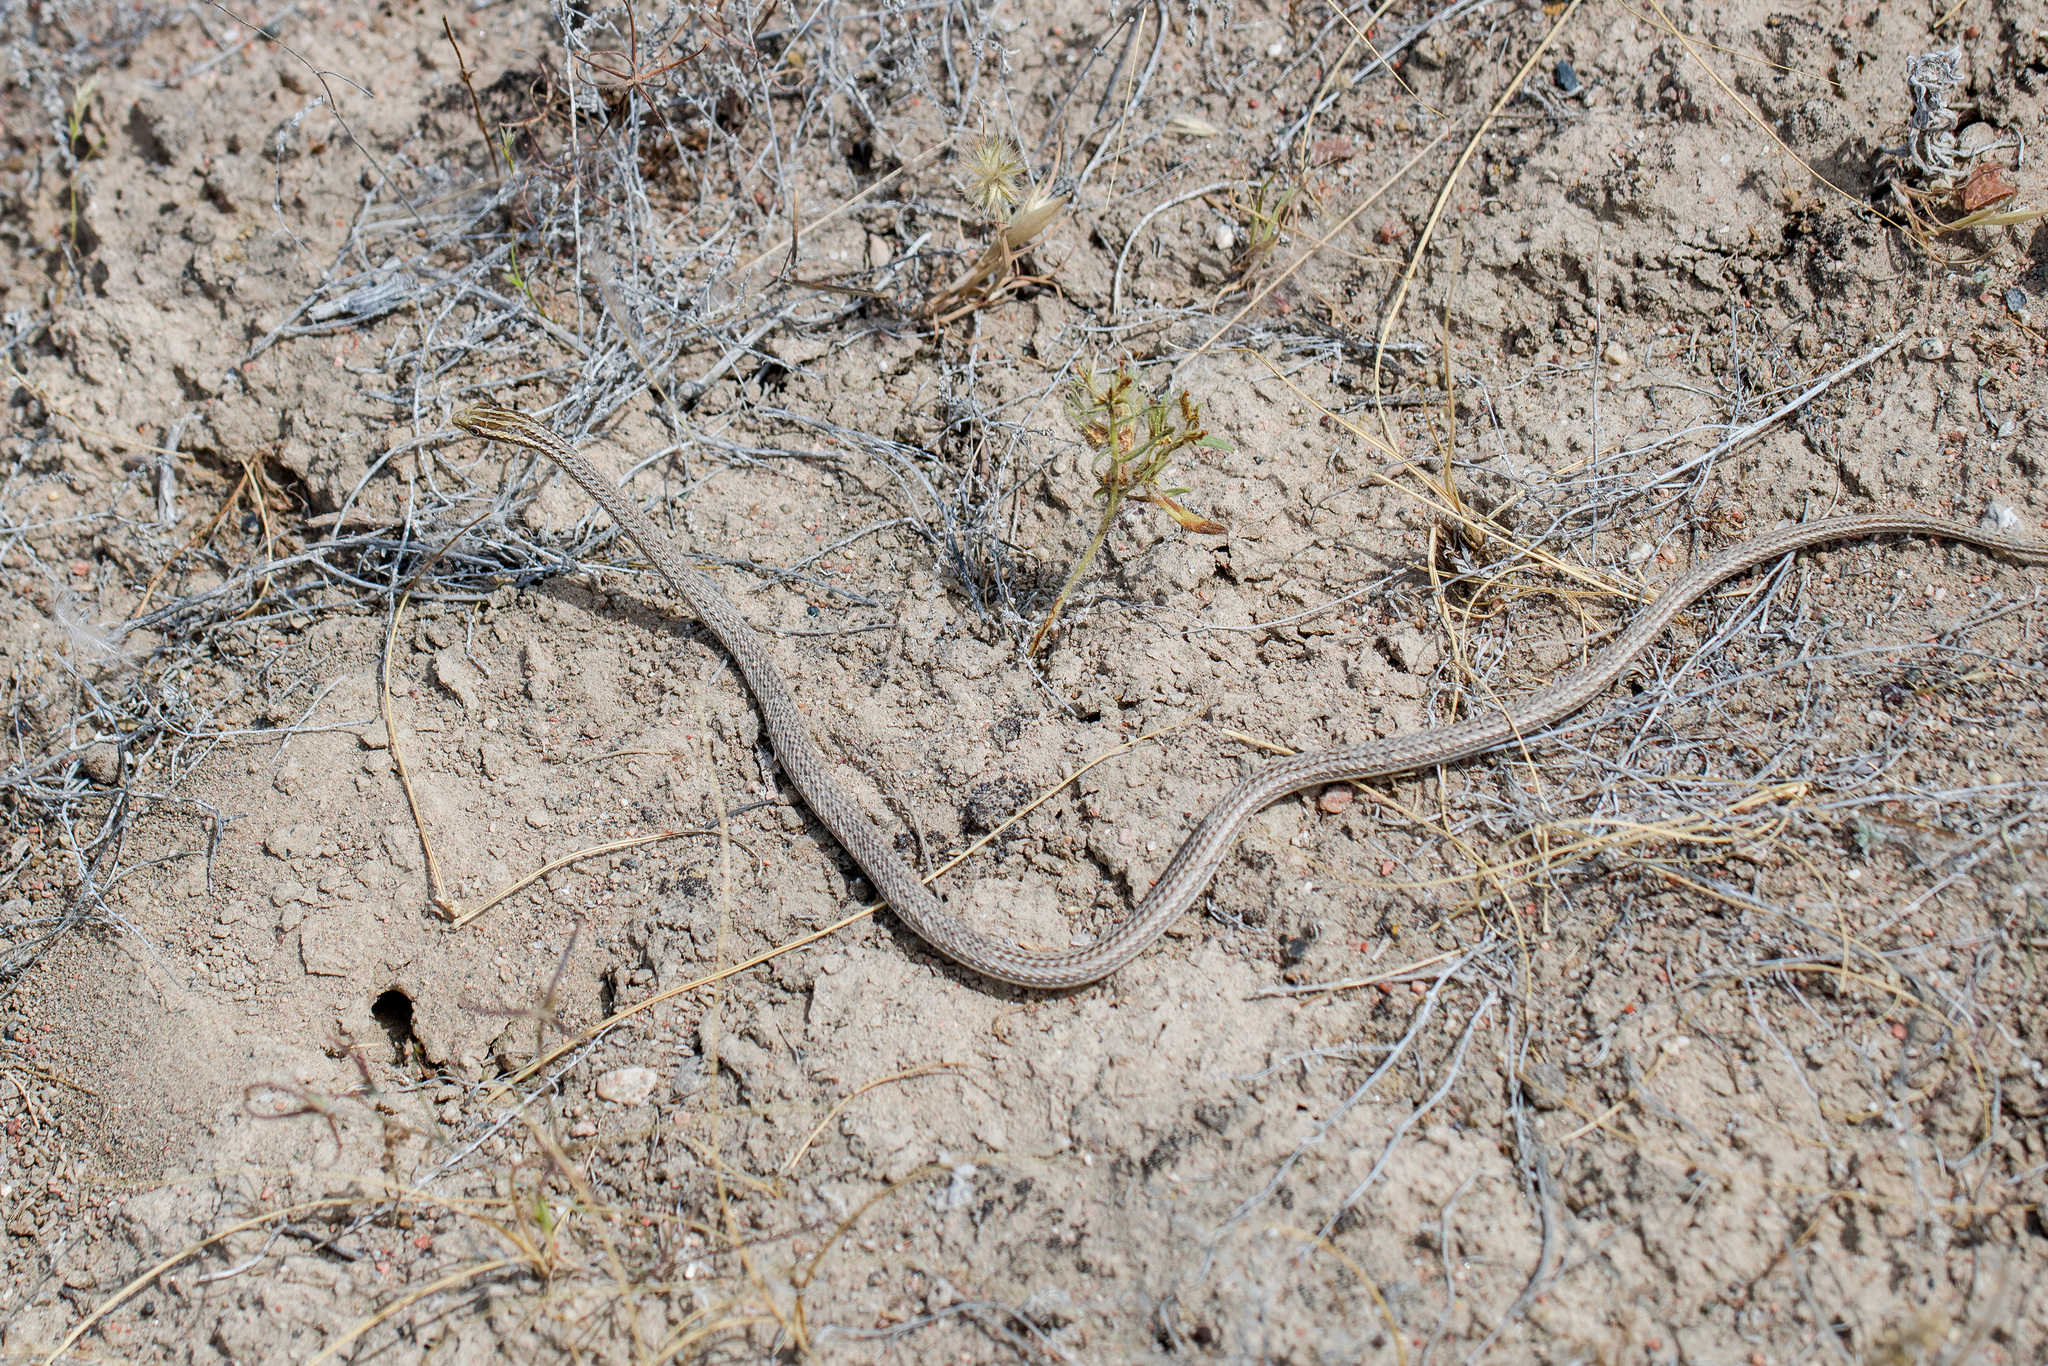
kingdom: Animalia
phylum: Chordata
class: Squamata
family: Psammophiidae
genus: Psammophis
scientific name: Psammophis lineolatus
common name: Steppe ribbon racer
